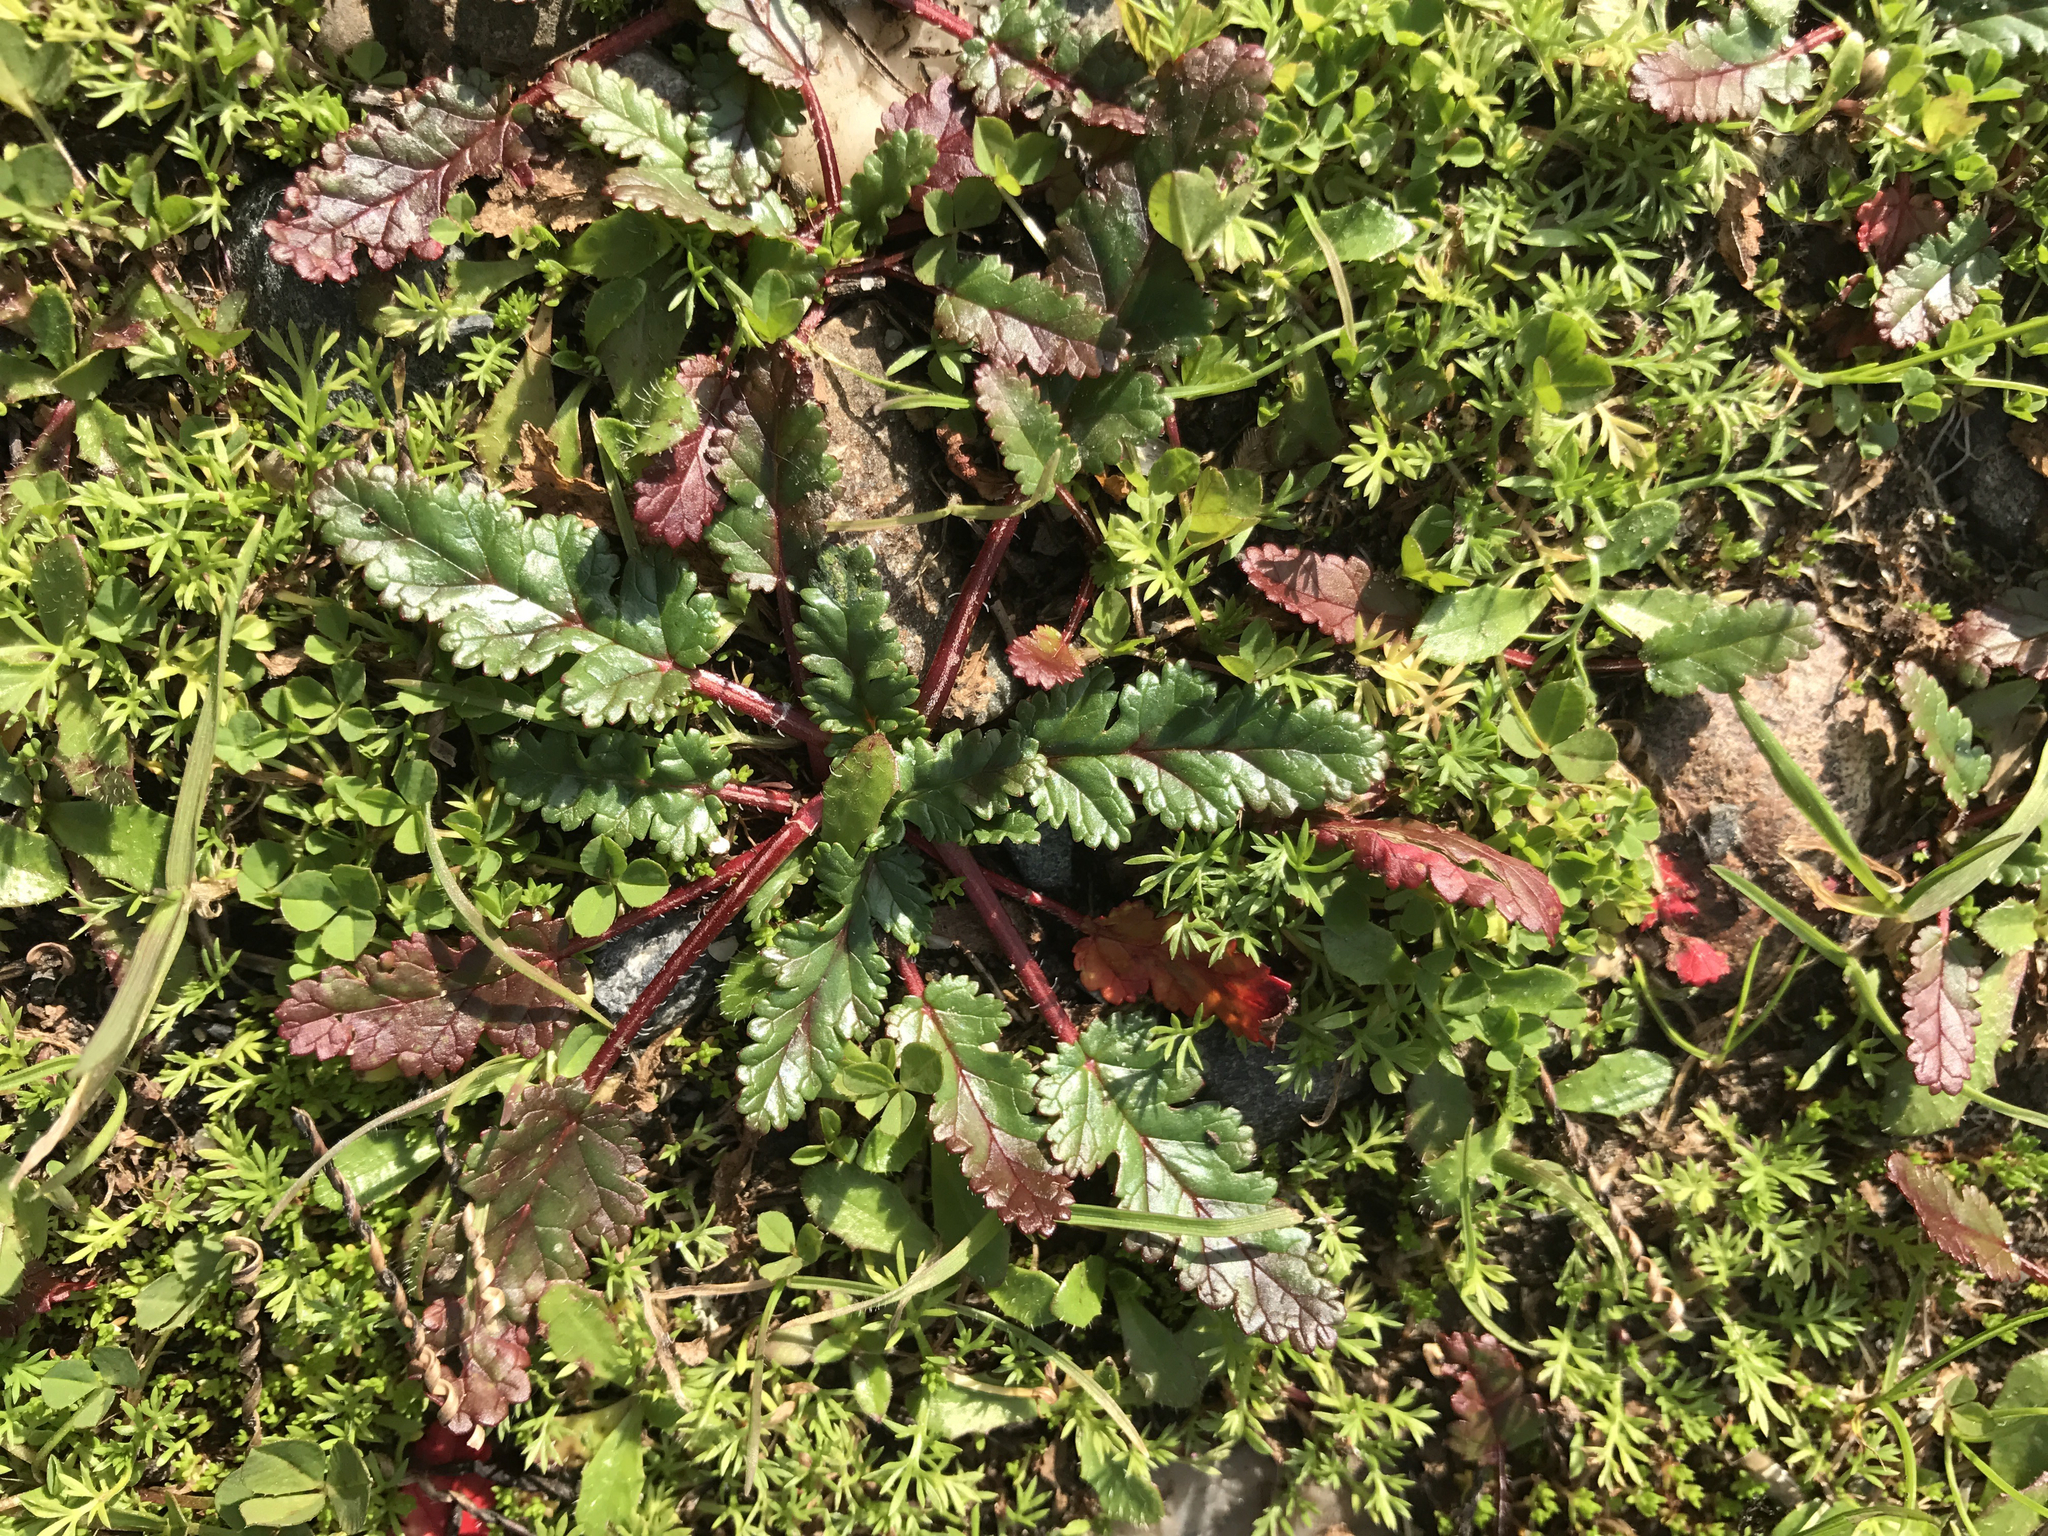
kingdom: Plantae
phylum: Tracheophyta
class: Magnoliopsida
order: Geraniales
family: Geraniaceae
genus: Erodium
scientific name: Erodium
